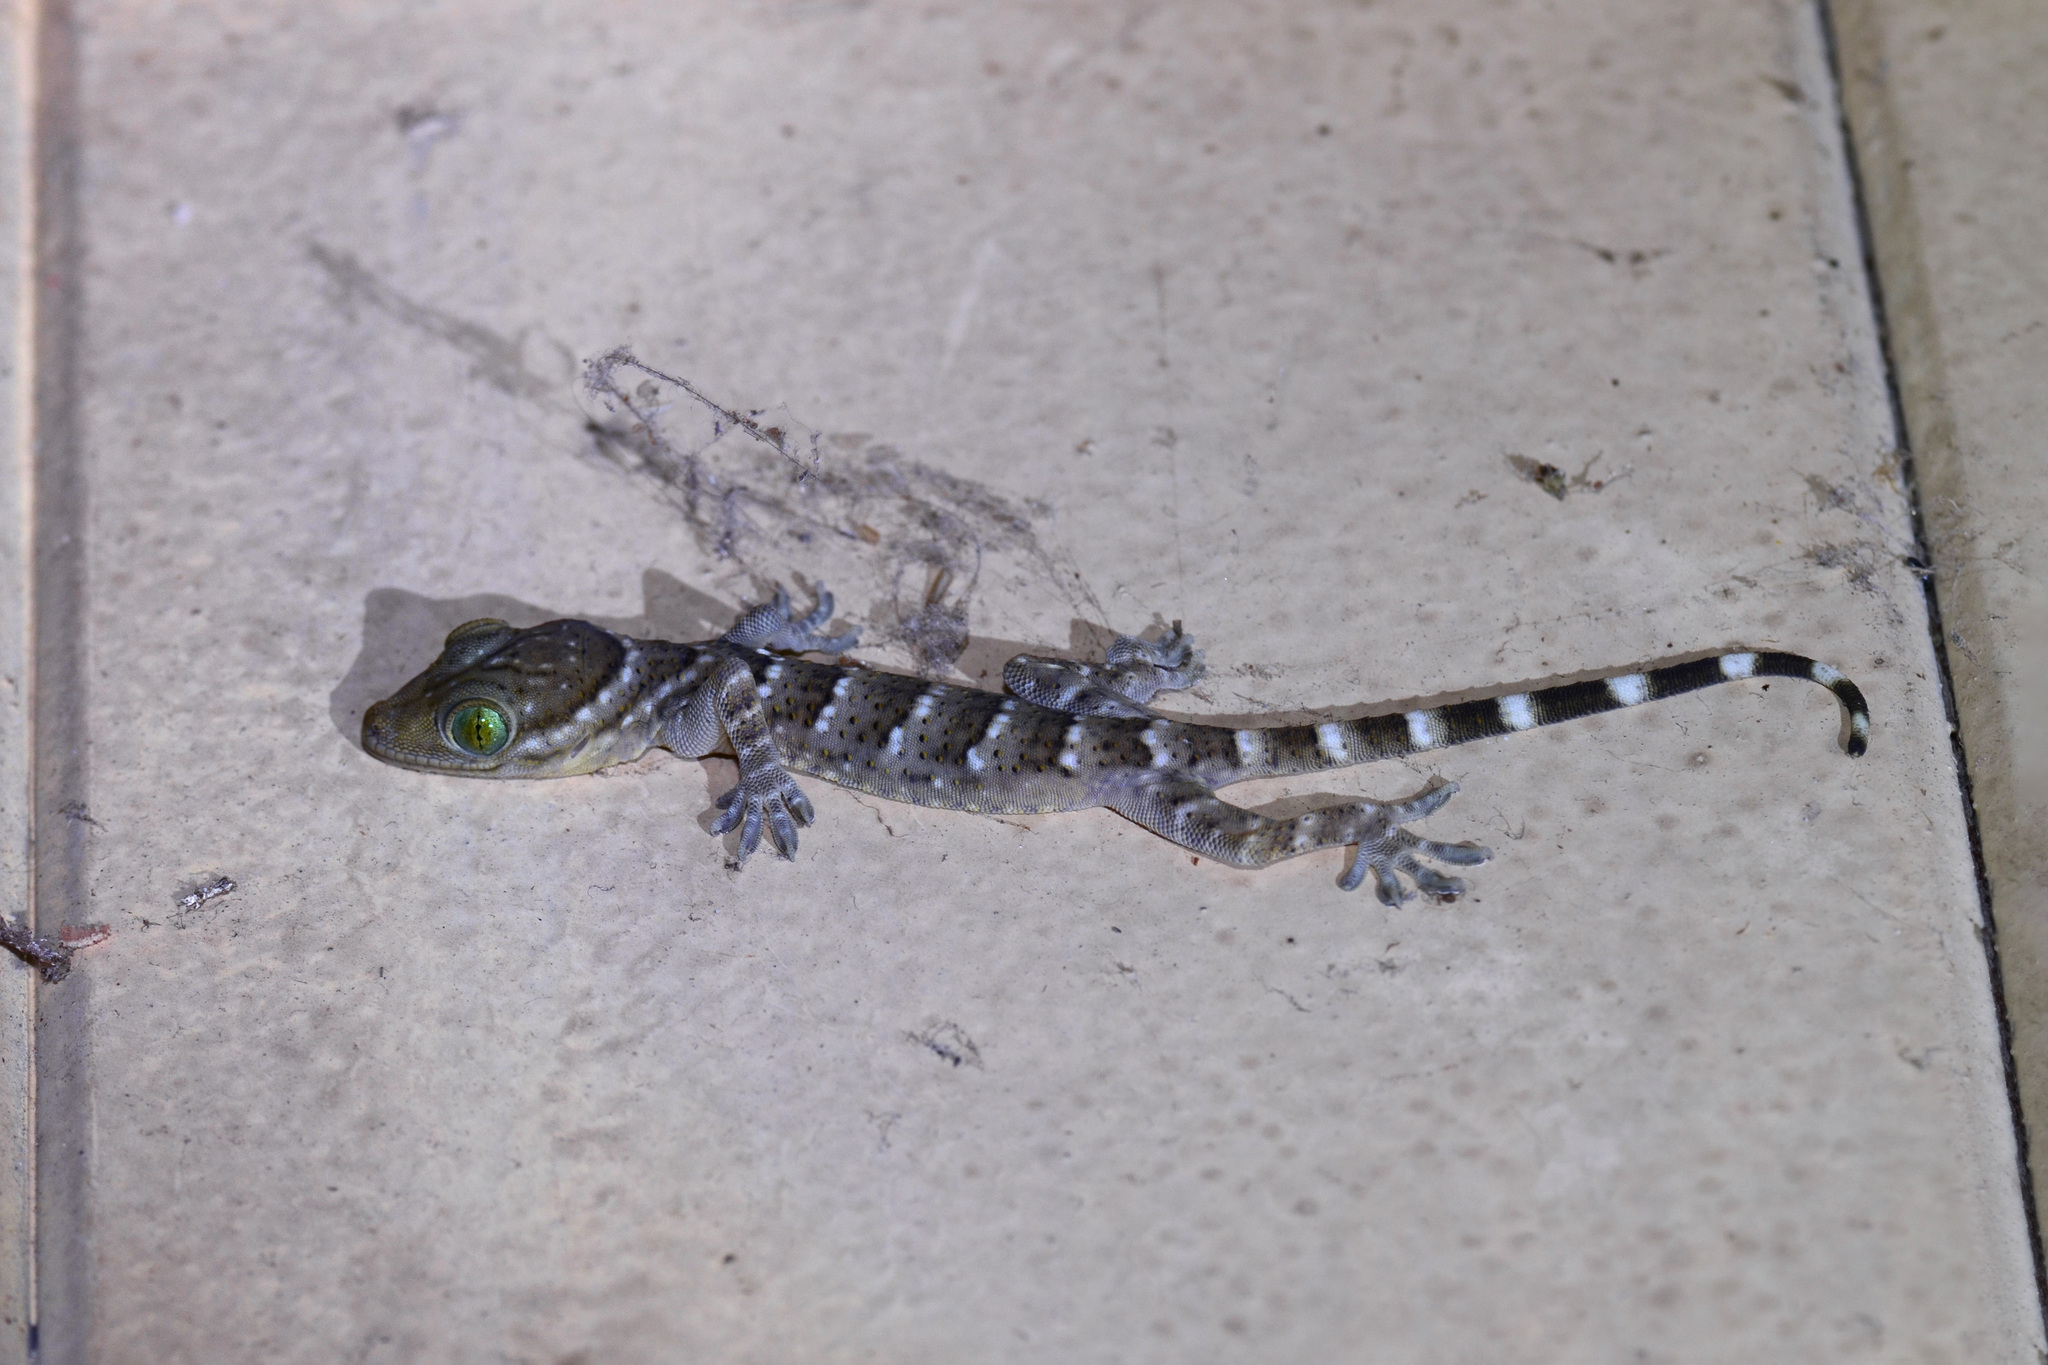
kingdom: Animalia
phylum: Chordata
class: Squamata
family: Gekkonidae
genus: Gekko
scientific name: Gekko smithii
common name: Large forest gecko
